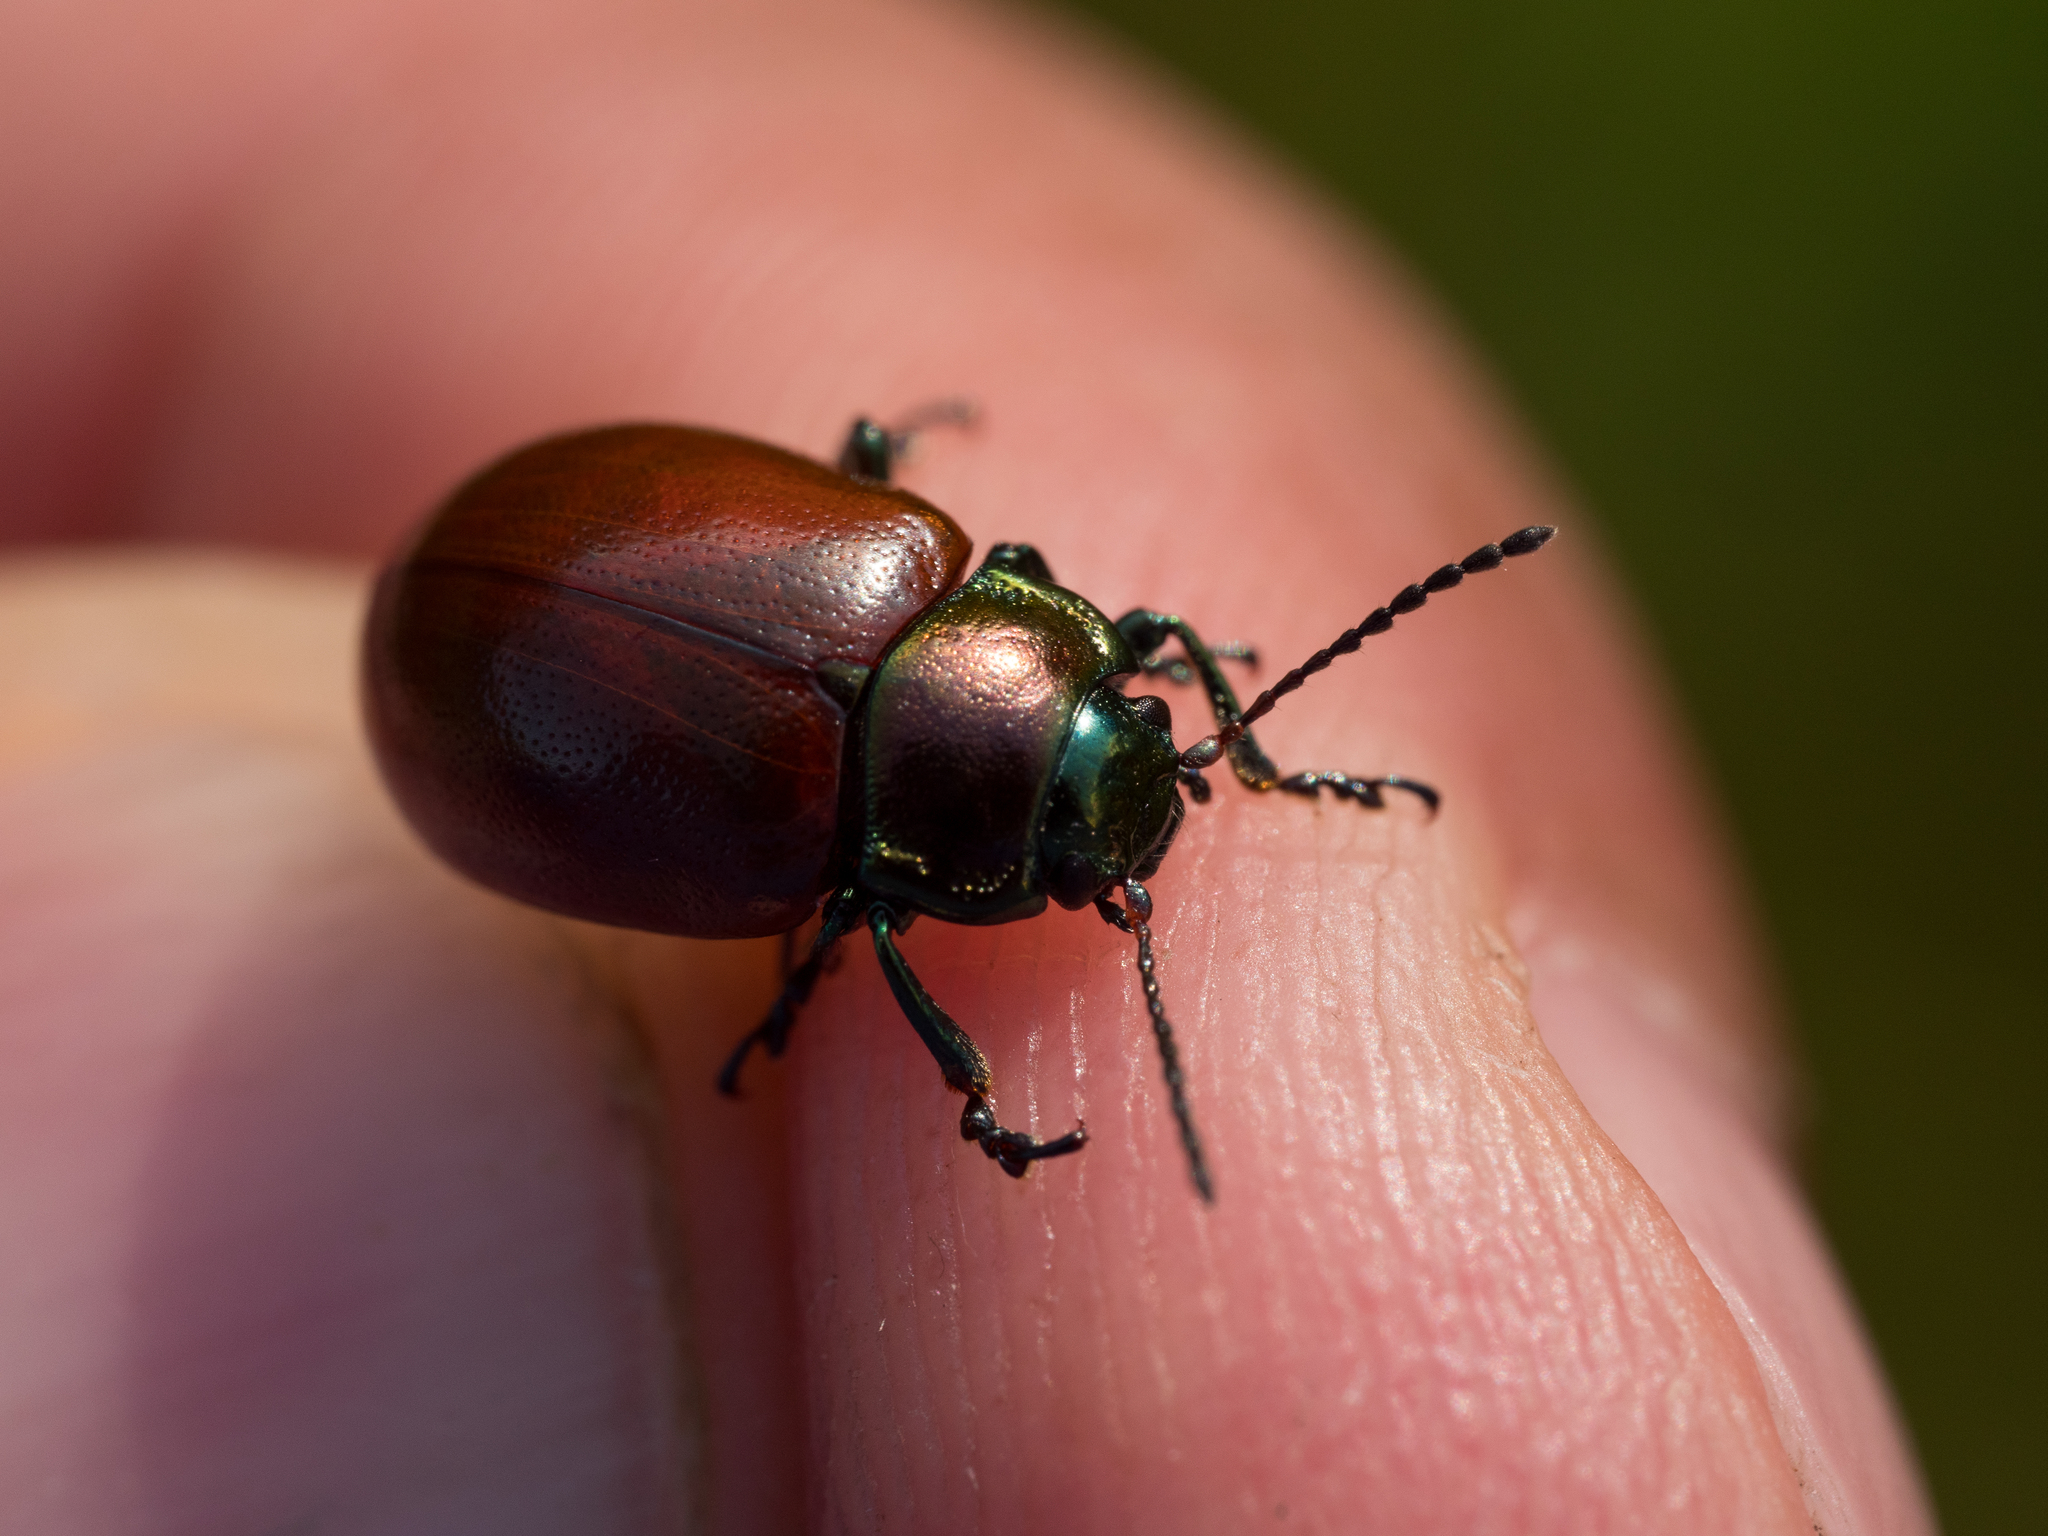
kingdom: Animalia
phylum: Arthropoda
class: Insecta
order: Coleoptera
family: Chrysomelidae
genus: Chrysomela
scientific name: Chrysomela polita
